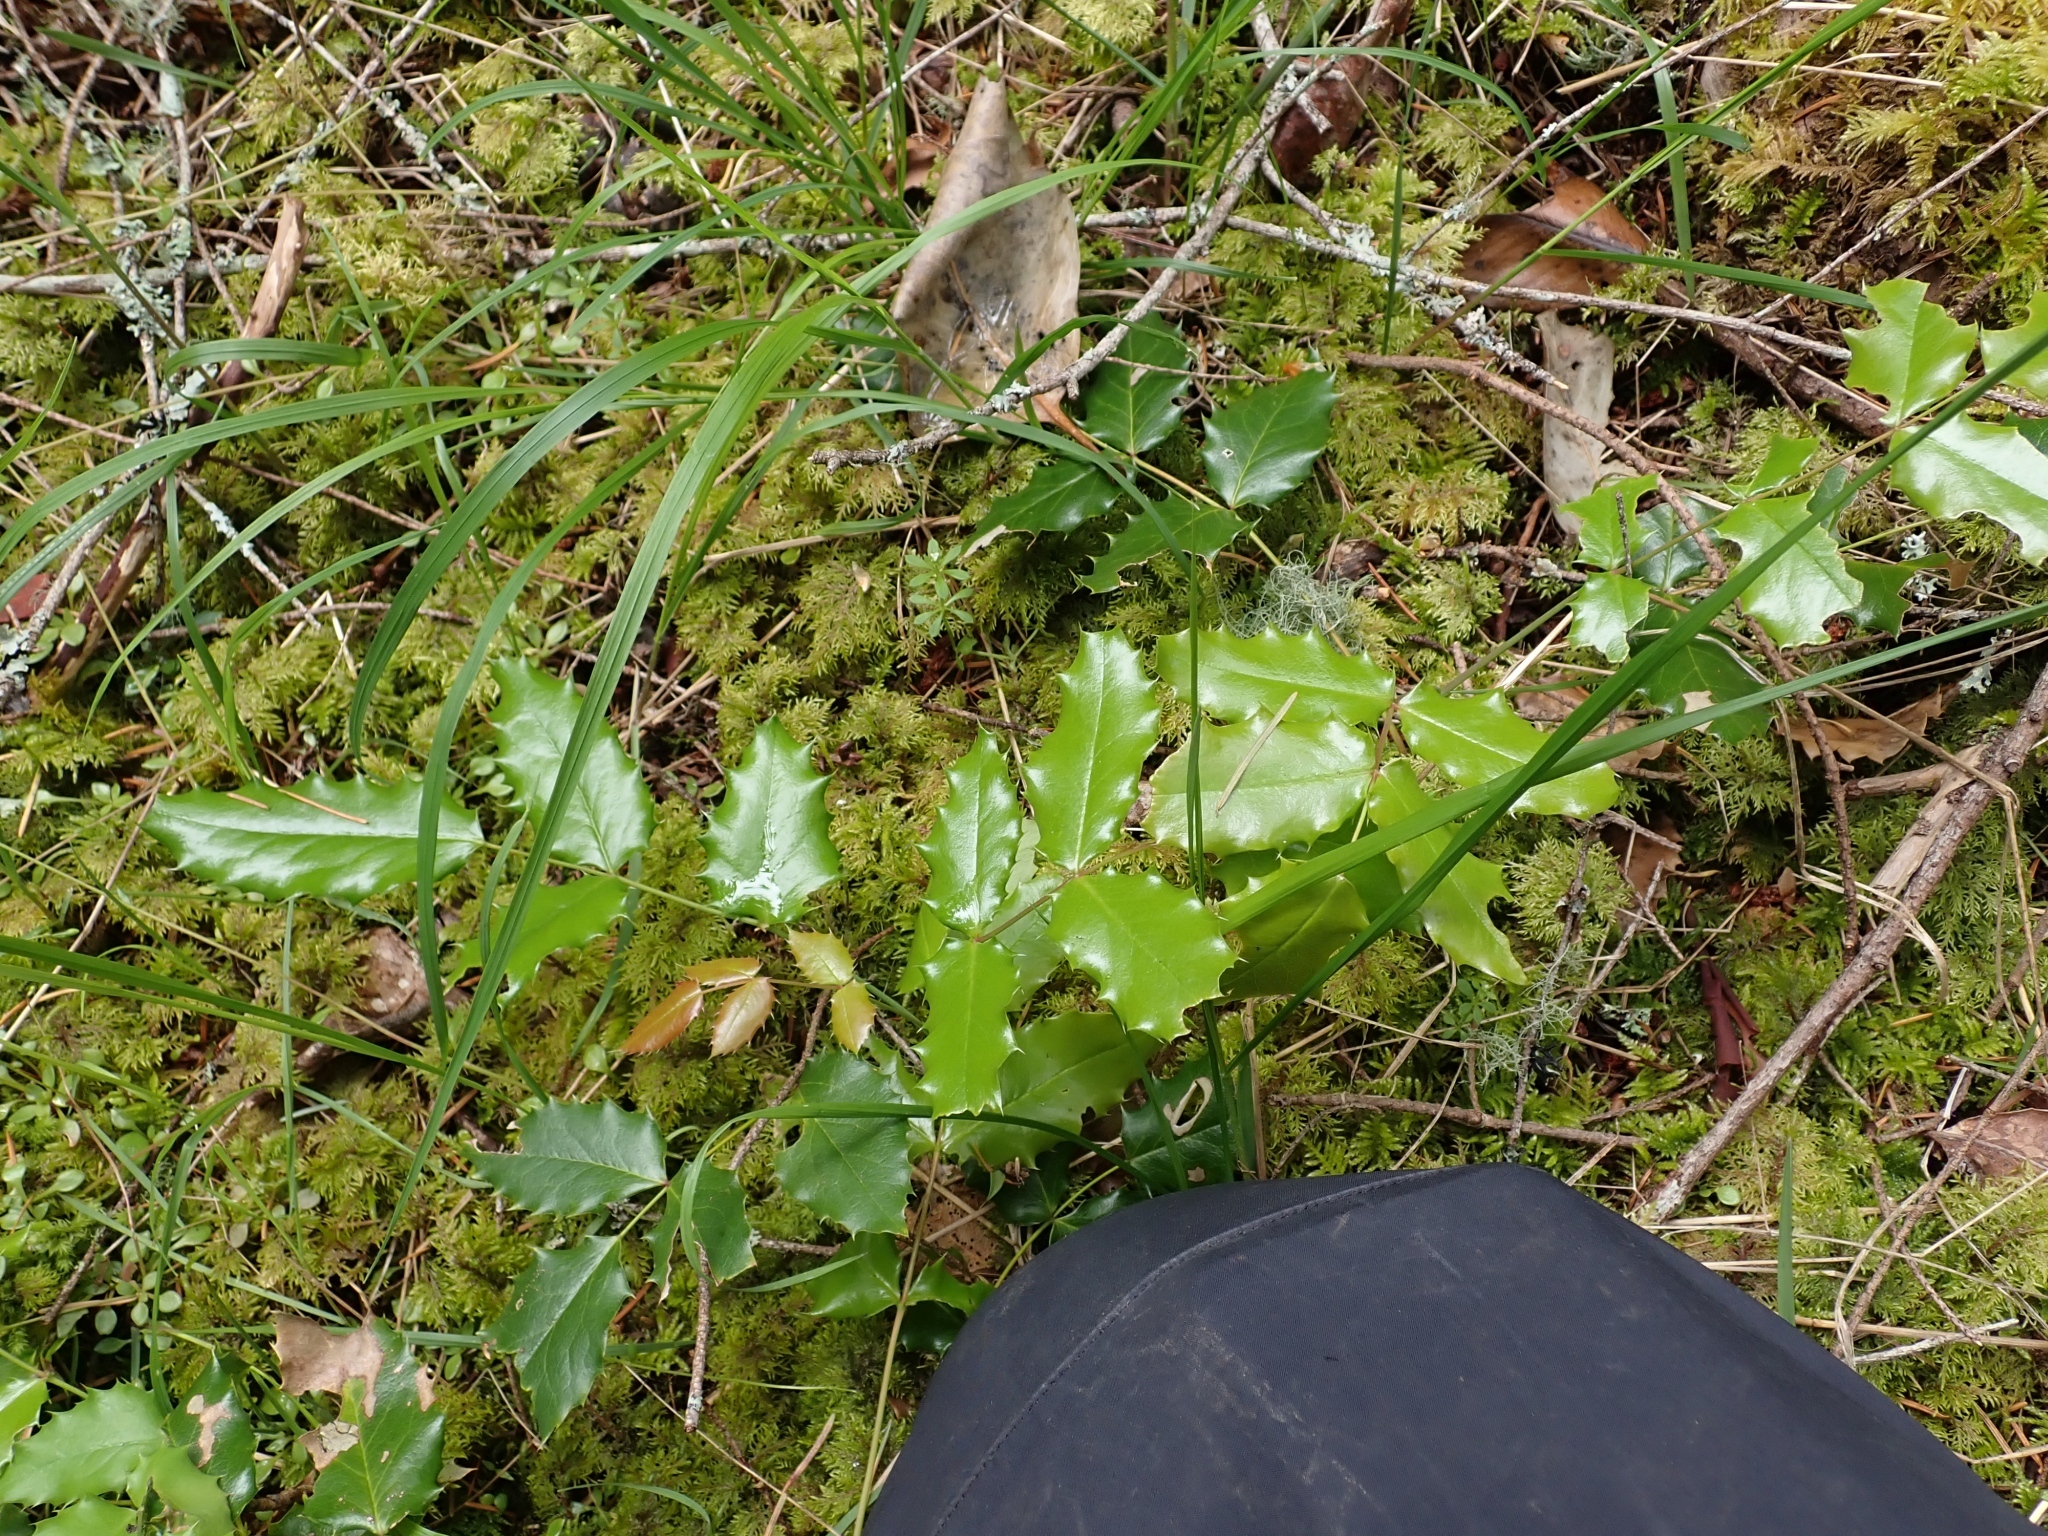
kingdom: Plantae
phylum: Tracheophyta
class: Magnoliopsida
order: Ranunculales
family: Berberidaceae
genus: Mahonia
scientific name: Mahonia aquifolium
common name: Oregon-grape
